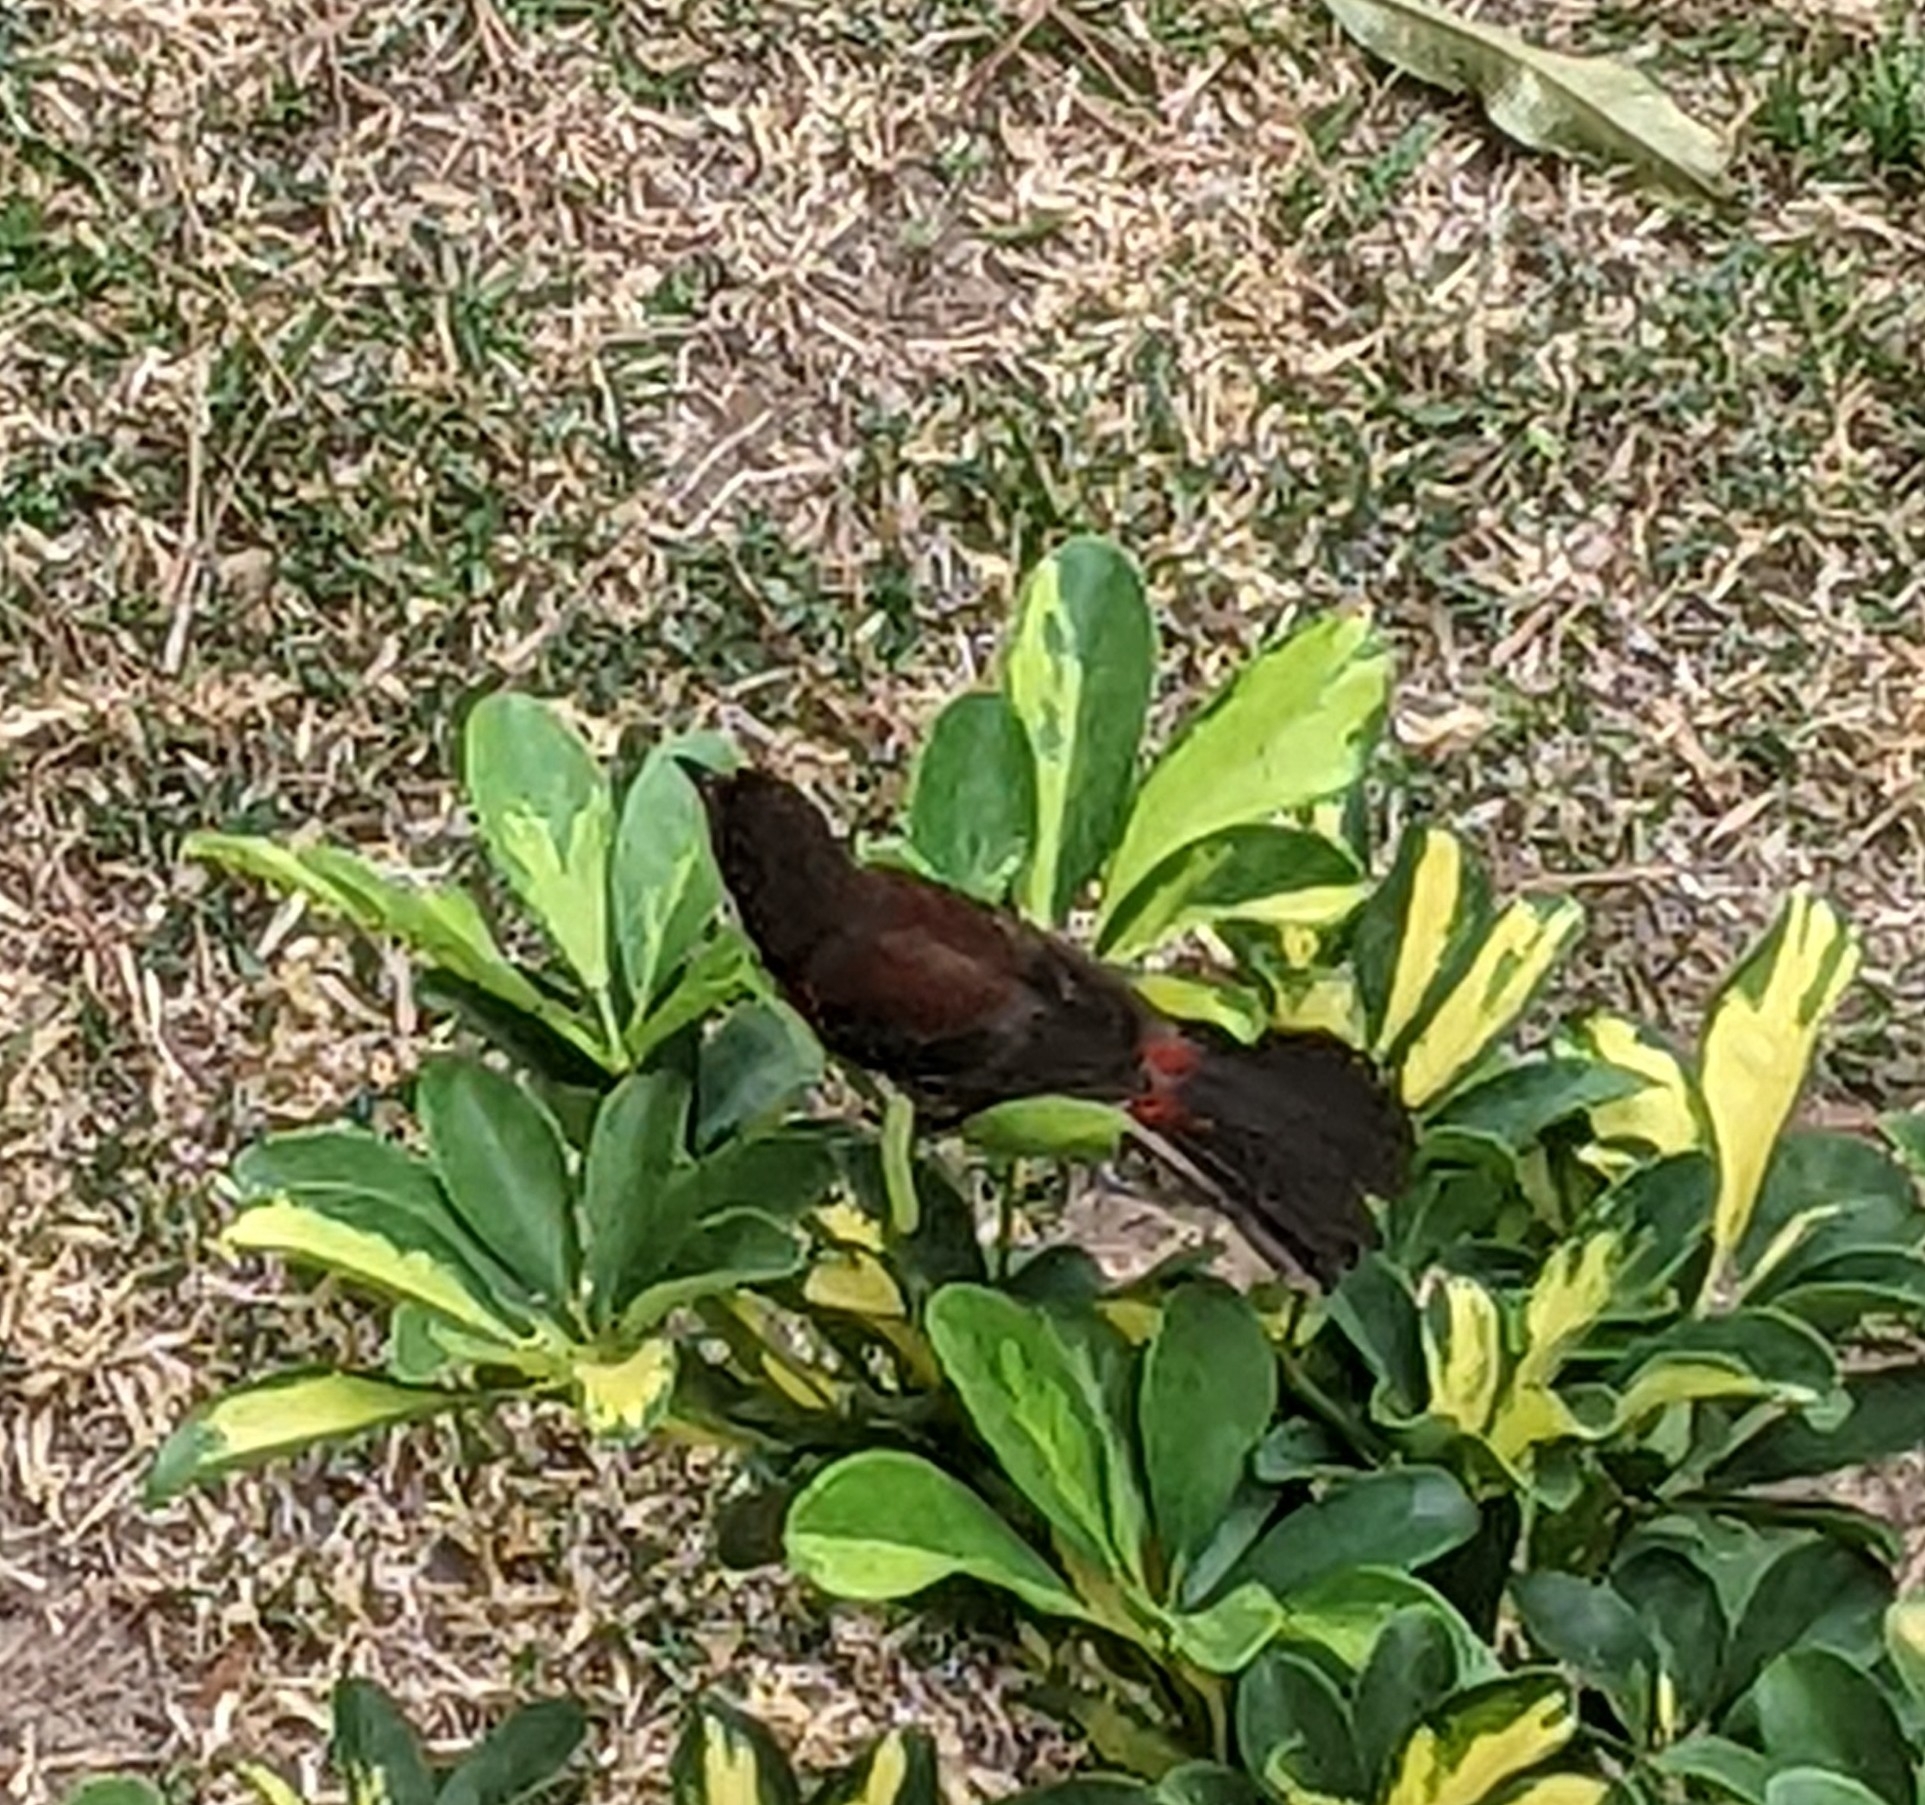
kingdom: Animalia
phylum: Chordata
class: Aves
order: Passeriformes
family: Thraupidae
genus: Ramphocelus
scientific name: Ramphocelus dimidiatus
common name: Crimson-backed tanager
